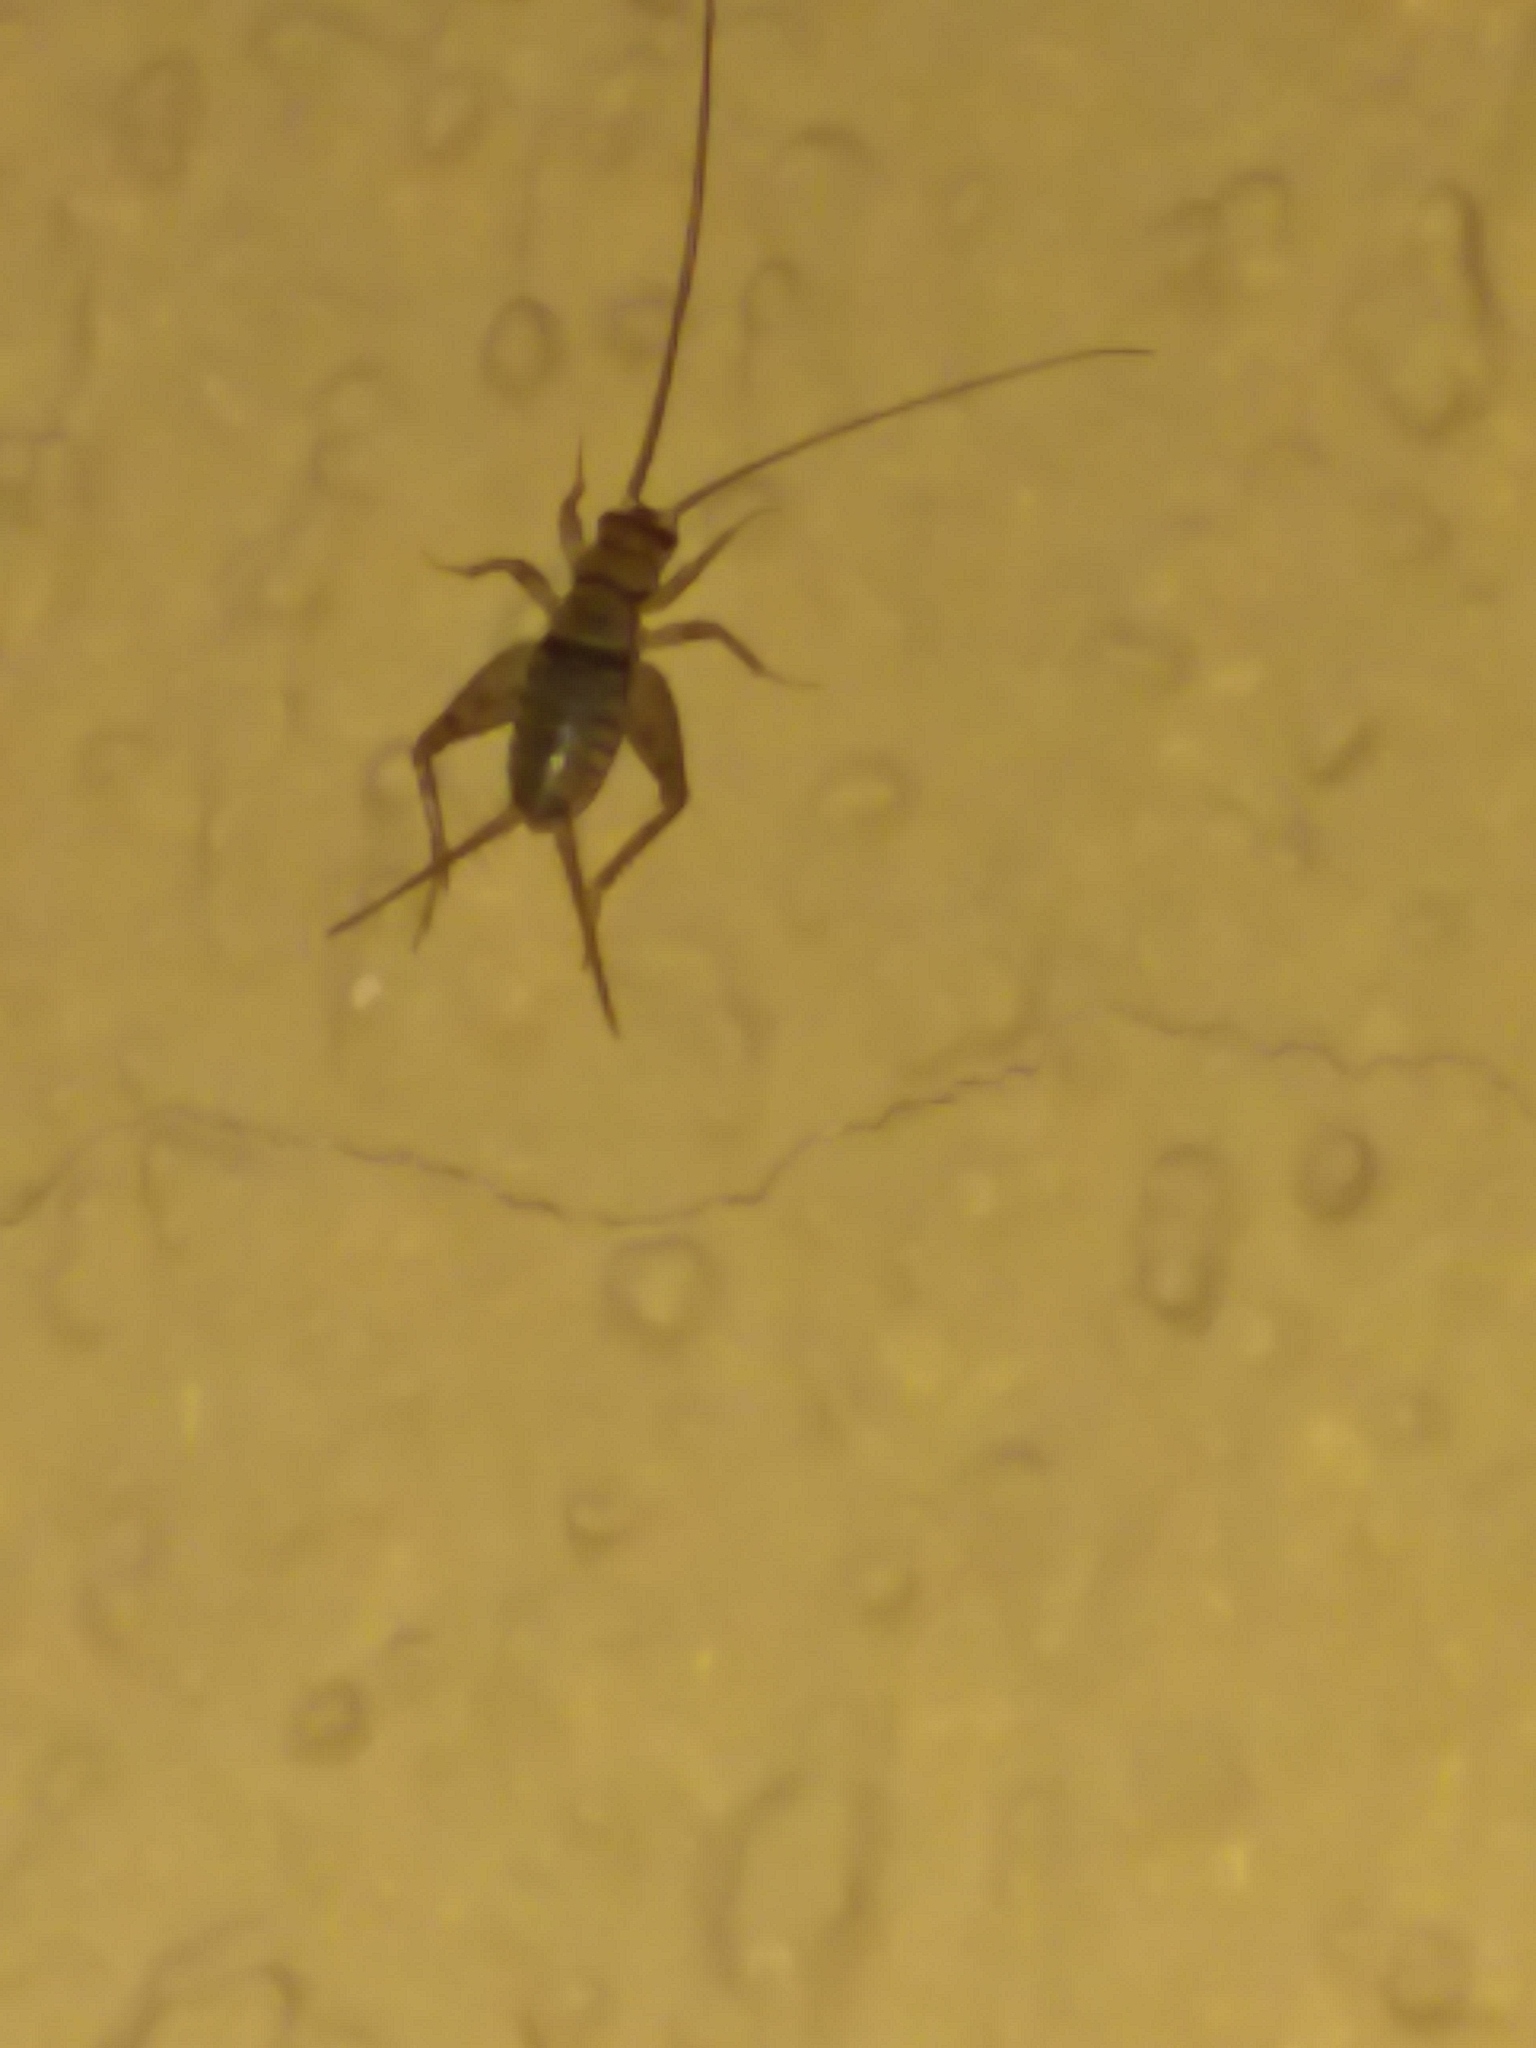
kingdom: Animalia
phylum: Arthropoda
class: Insecta
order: Orthoptera
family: Gryllidae
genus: Gryllodes
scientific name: Gryllodes sigillatus
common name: Tropical house cricket
